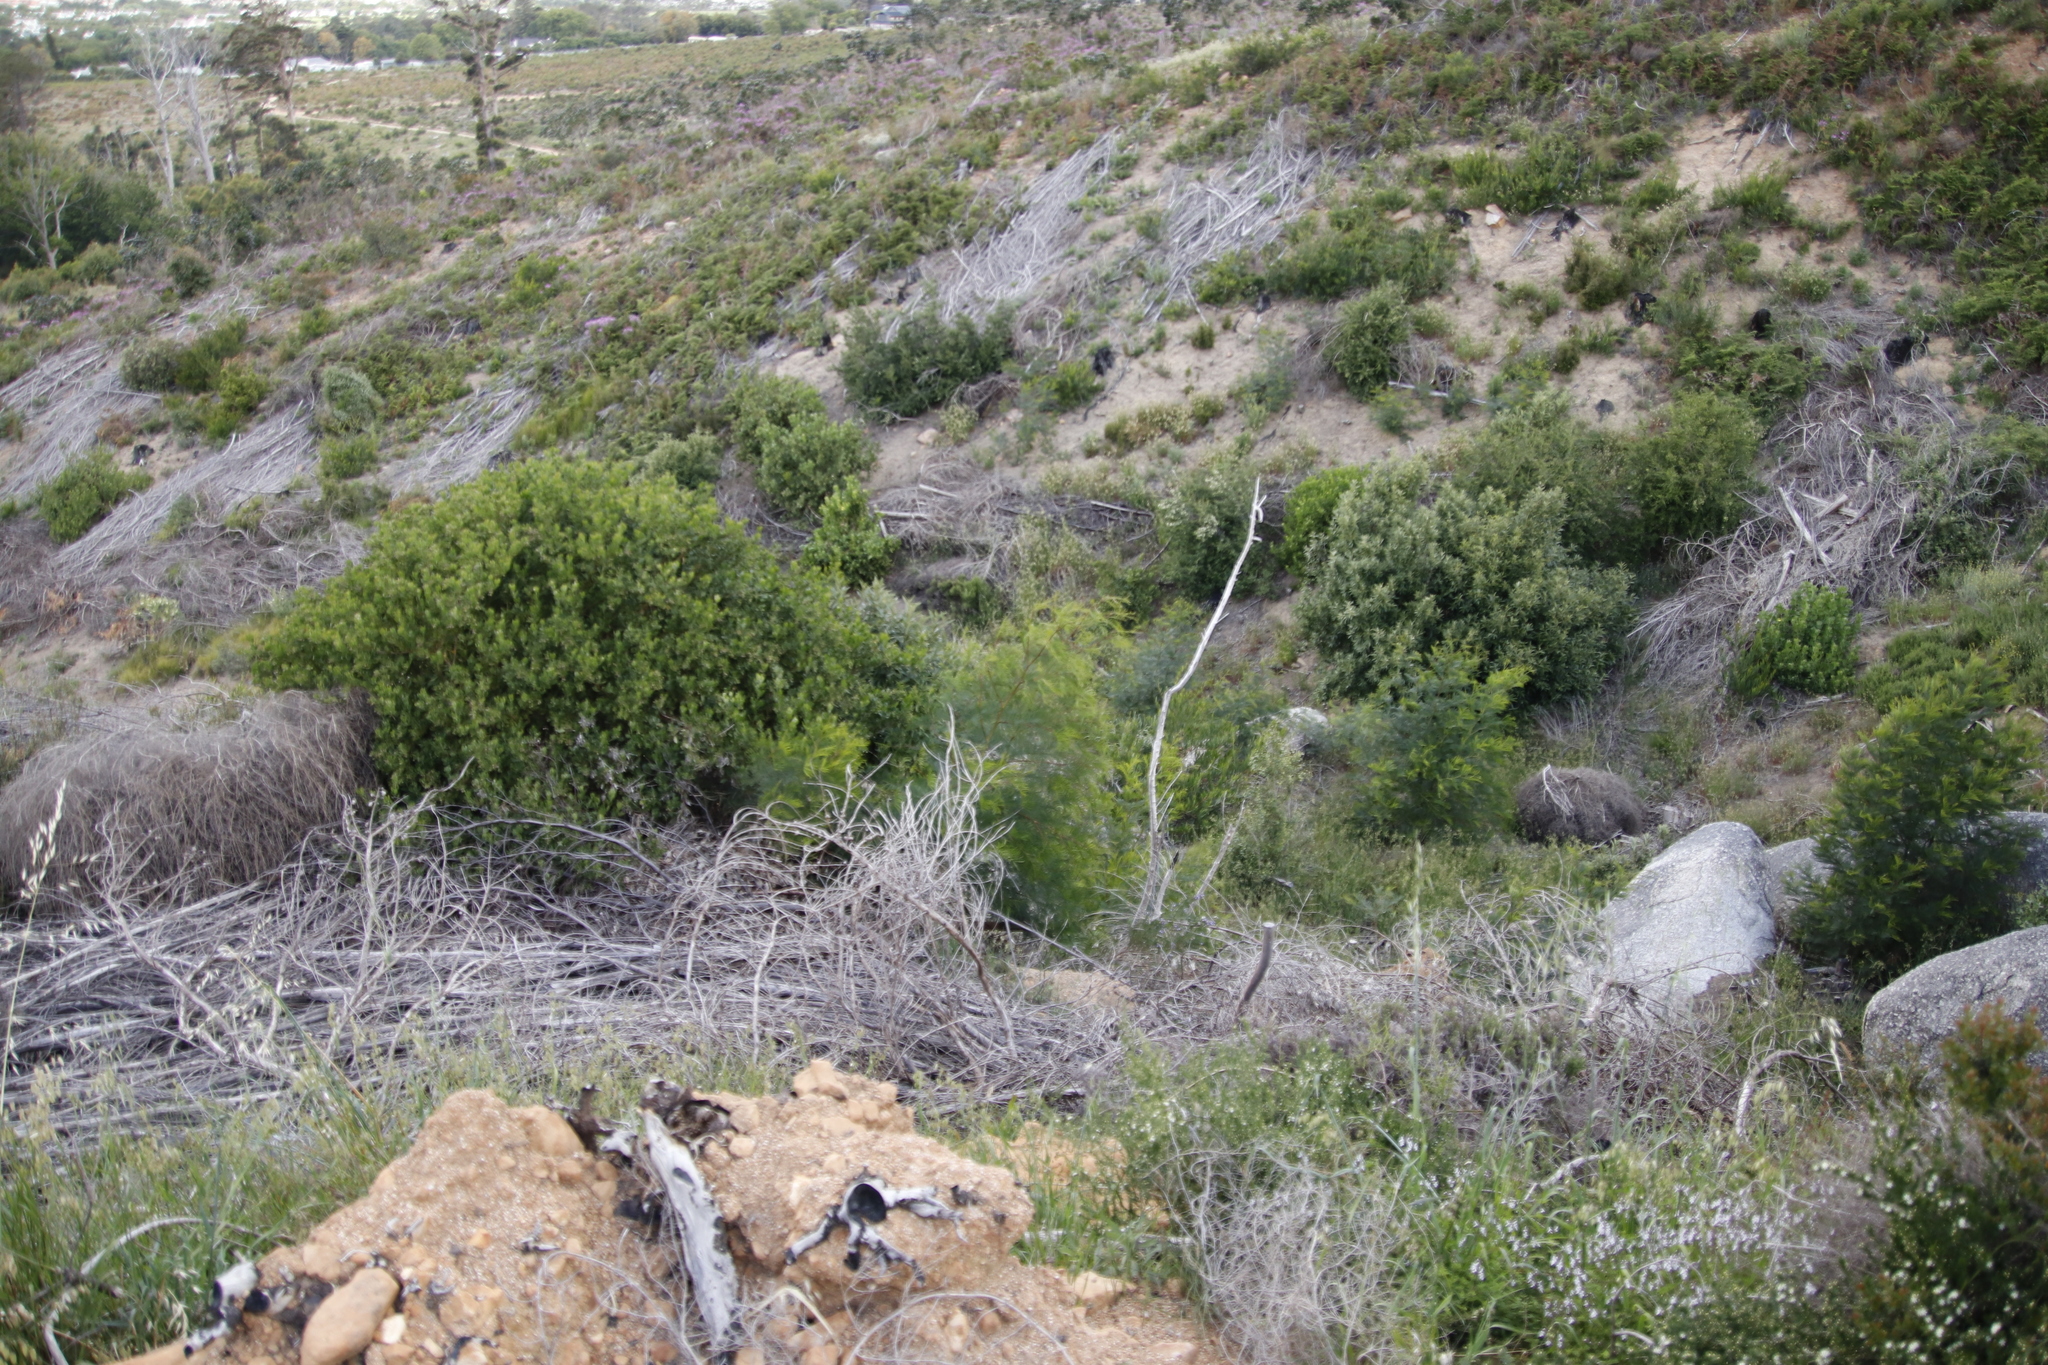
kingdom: Plantae
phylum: Tracheophyta
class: Magnoliopsida
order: Fabales
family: Fabaceae
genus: Acacia
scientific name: Acacia decurrens
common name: Green wattle
